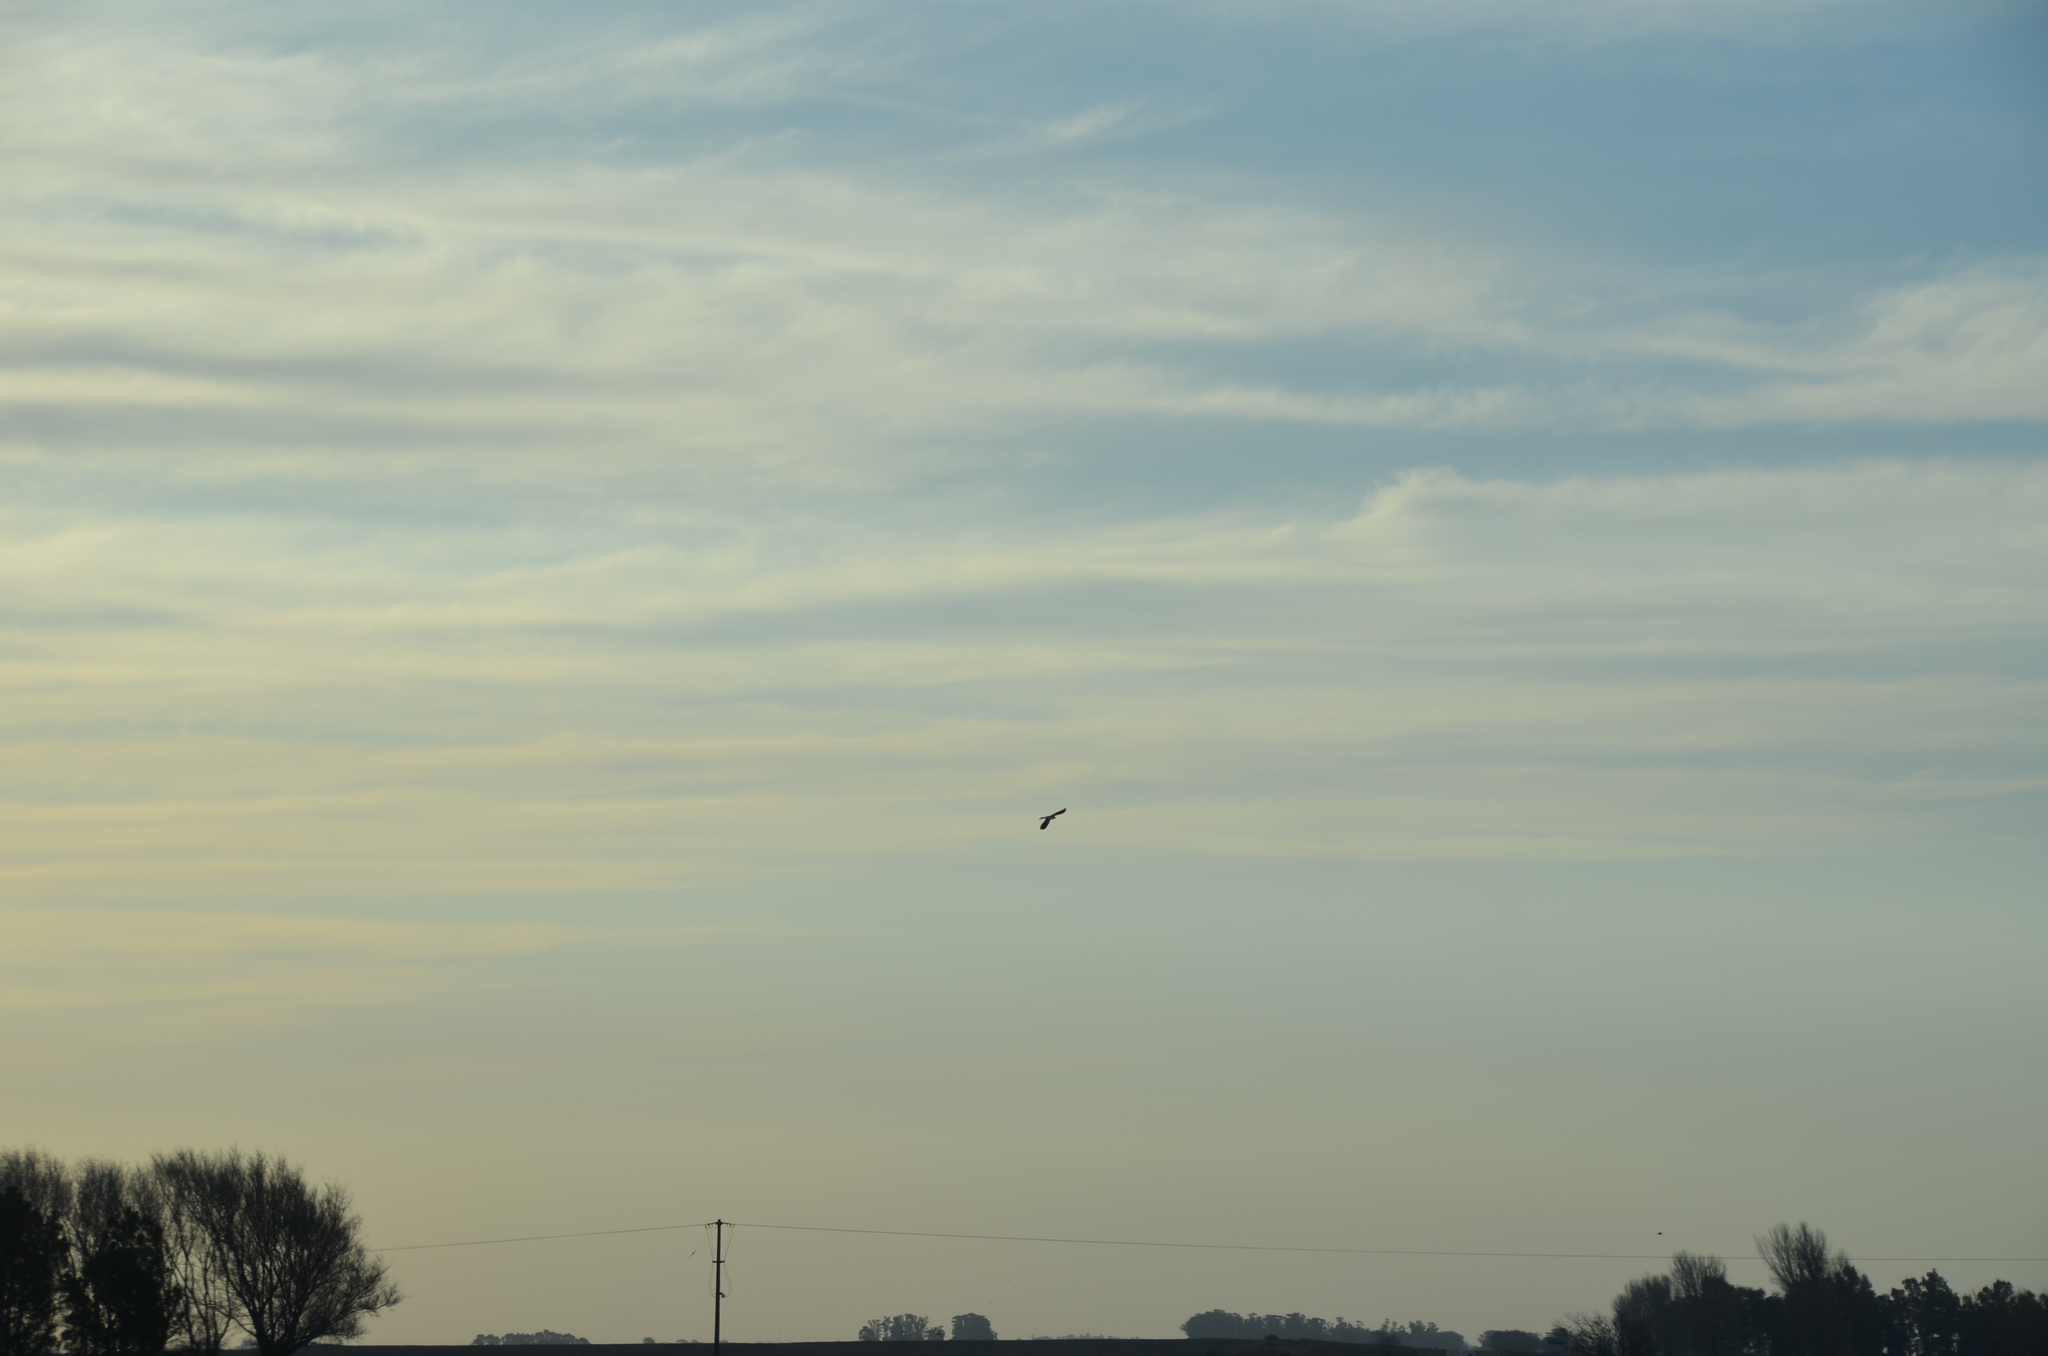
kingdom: Animalia
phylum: Chordata
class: Aves
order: Accipitriformes
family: Accipitridae
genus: Elanus
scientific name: Elanus leucurus
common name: White-tailed kite
